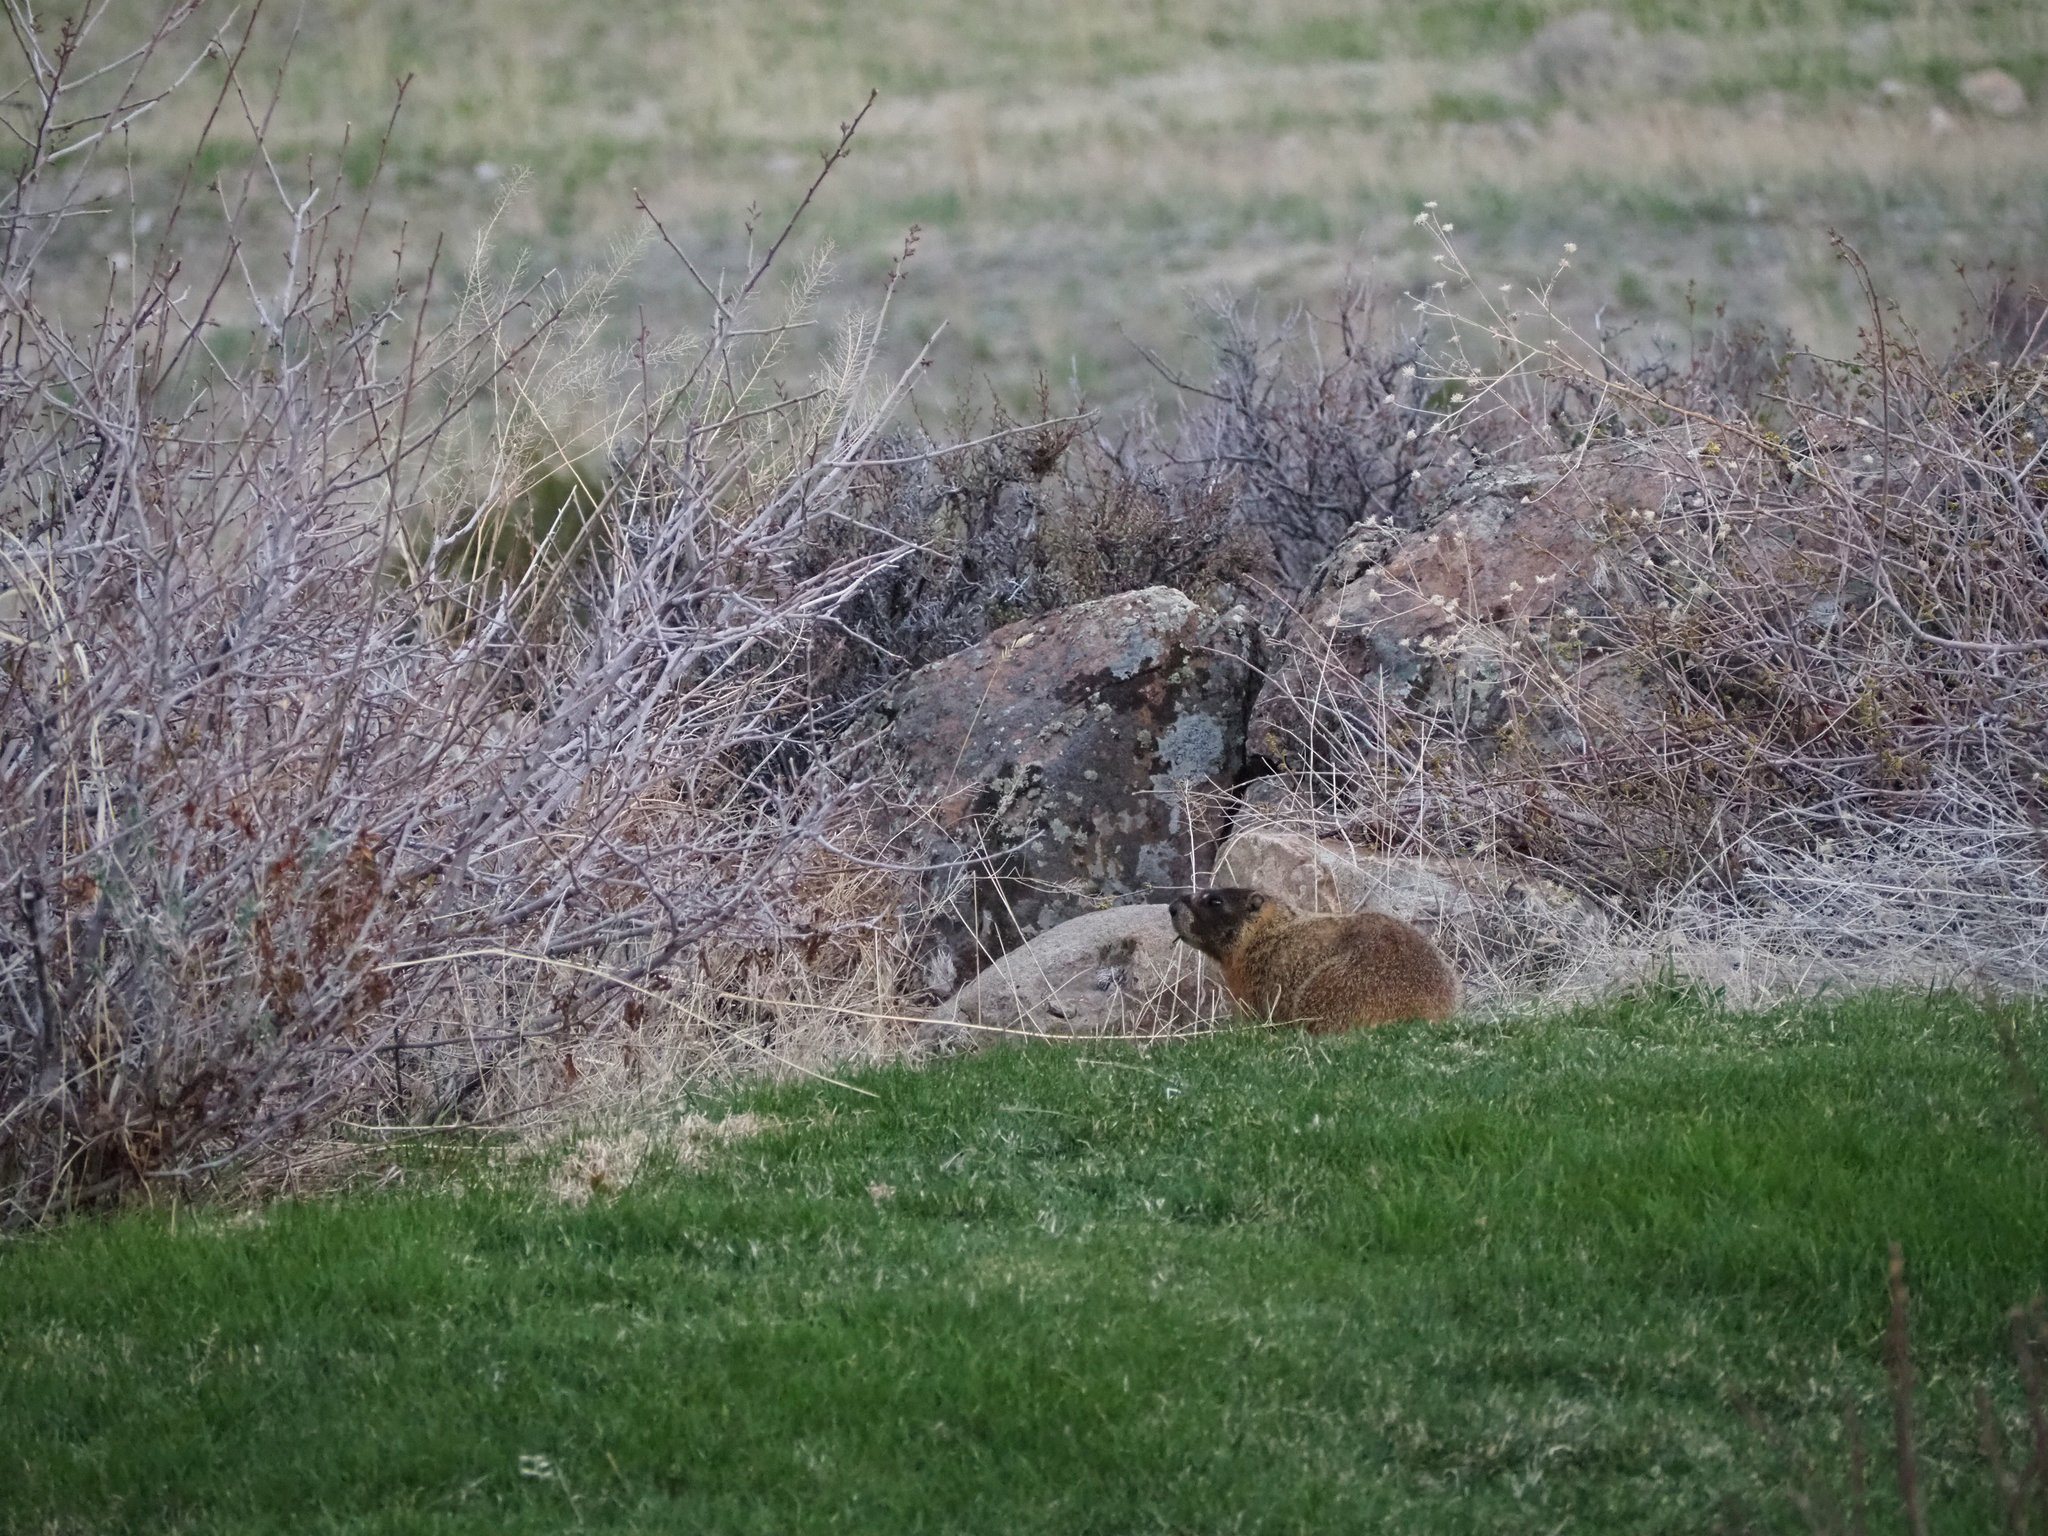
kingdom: Animalia
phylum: Chordata
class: Mammalia
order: Rodentia
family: Sciuridae
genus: Marmota
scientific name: Marmota flaviventris
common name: Yellow-bellied marmot
